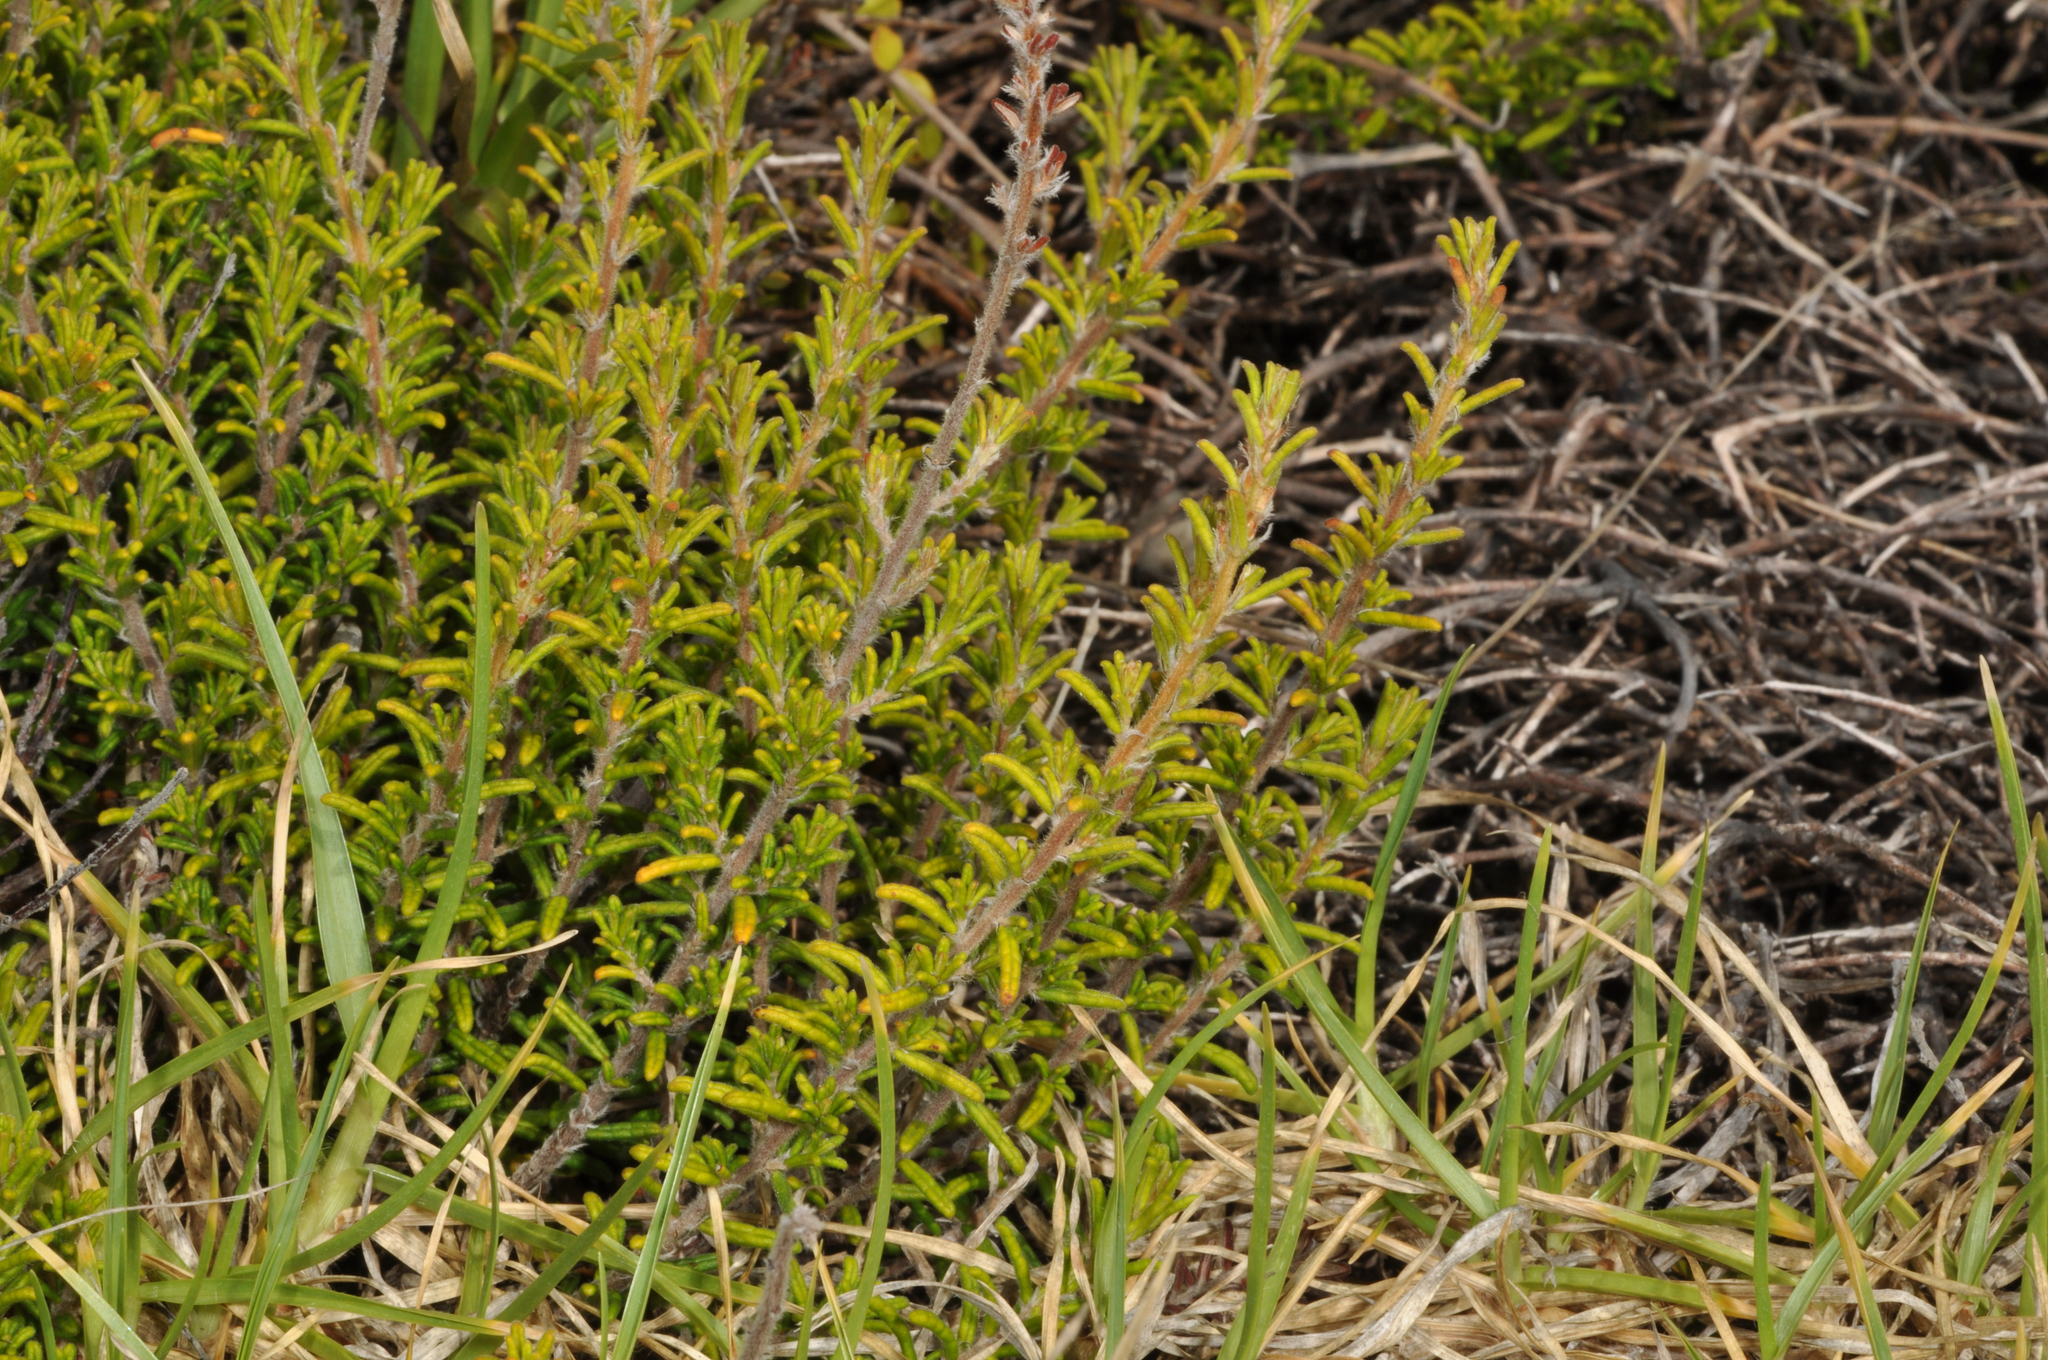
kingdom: Plantae
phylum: Tracheophyta
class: Magnoliopsida
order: Rosales
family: Rhamnaceae
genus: Pomaderris
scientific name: Pomaderris amoena
